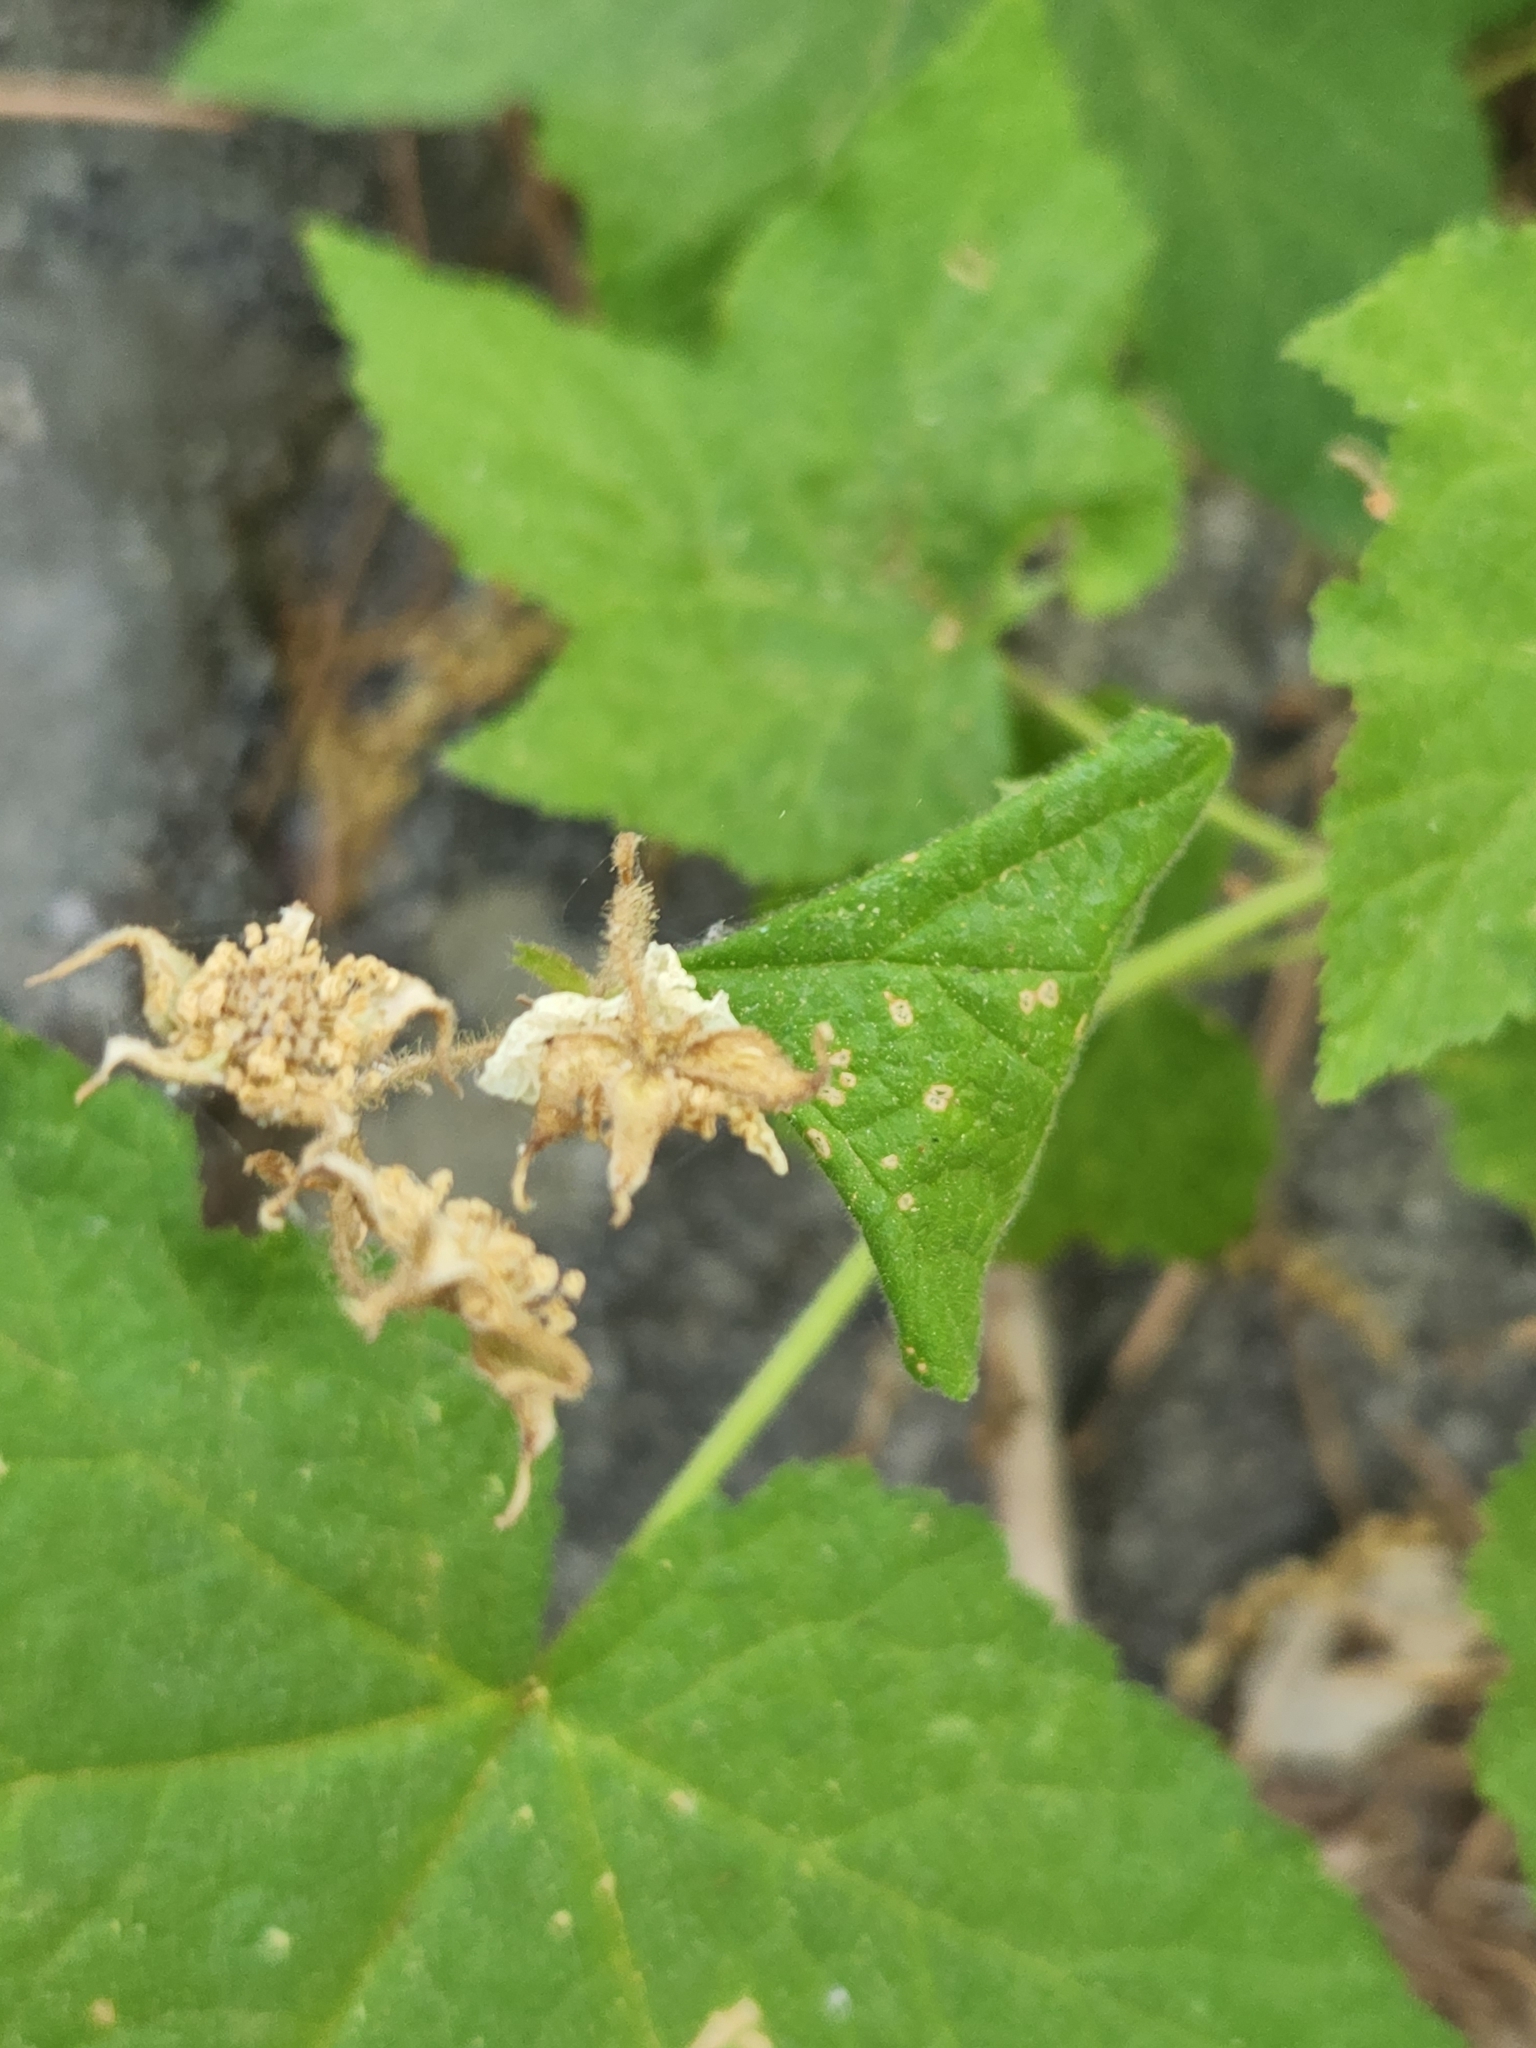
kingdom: Plantae
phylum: Tracheophyta
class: Magnoliopsida
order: Rosales
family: Rosaceae
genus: Rubus
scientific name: Rubus parviflorus
